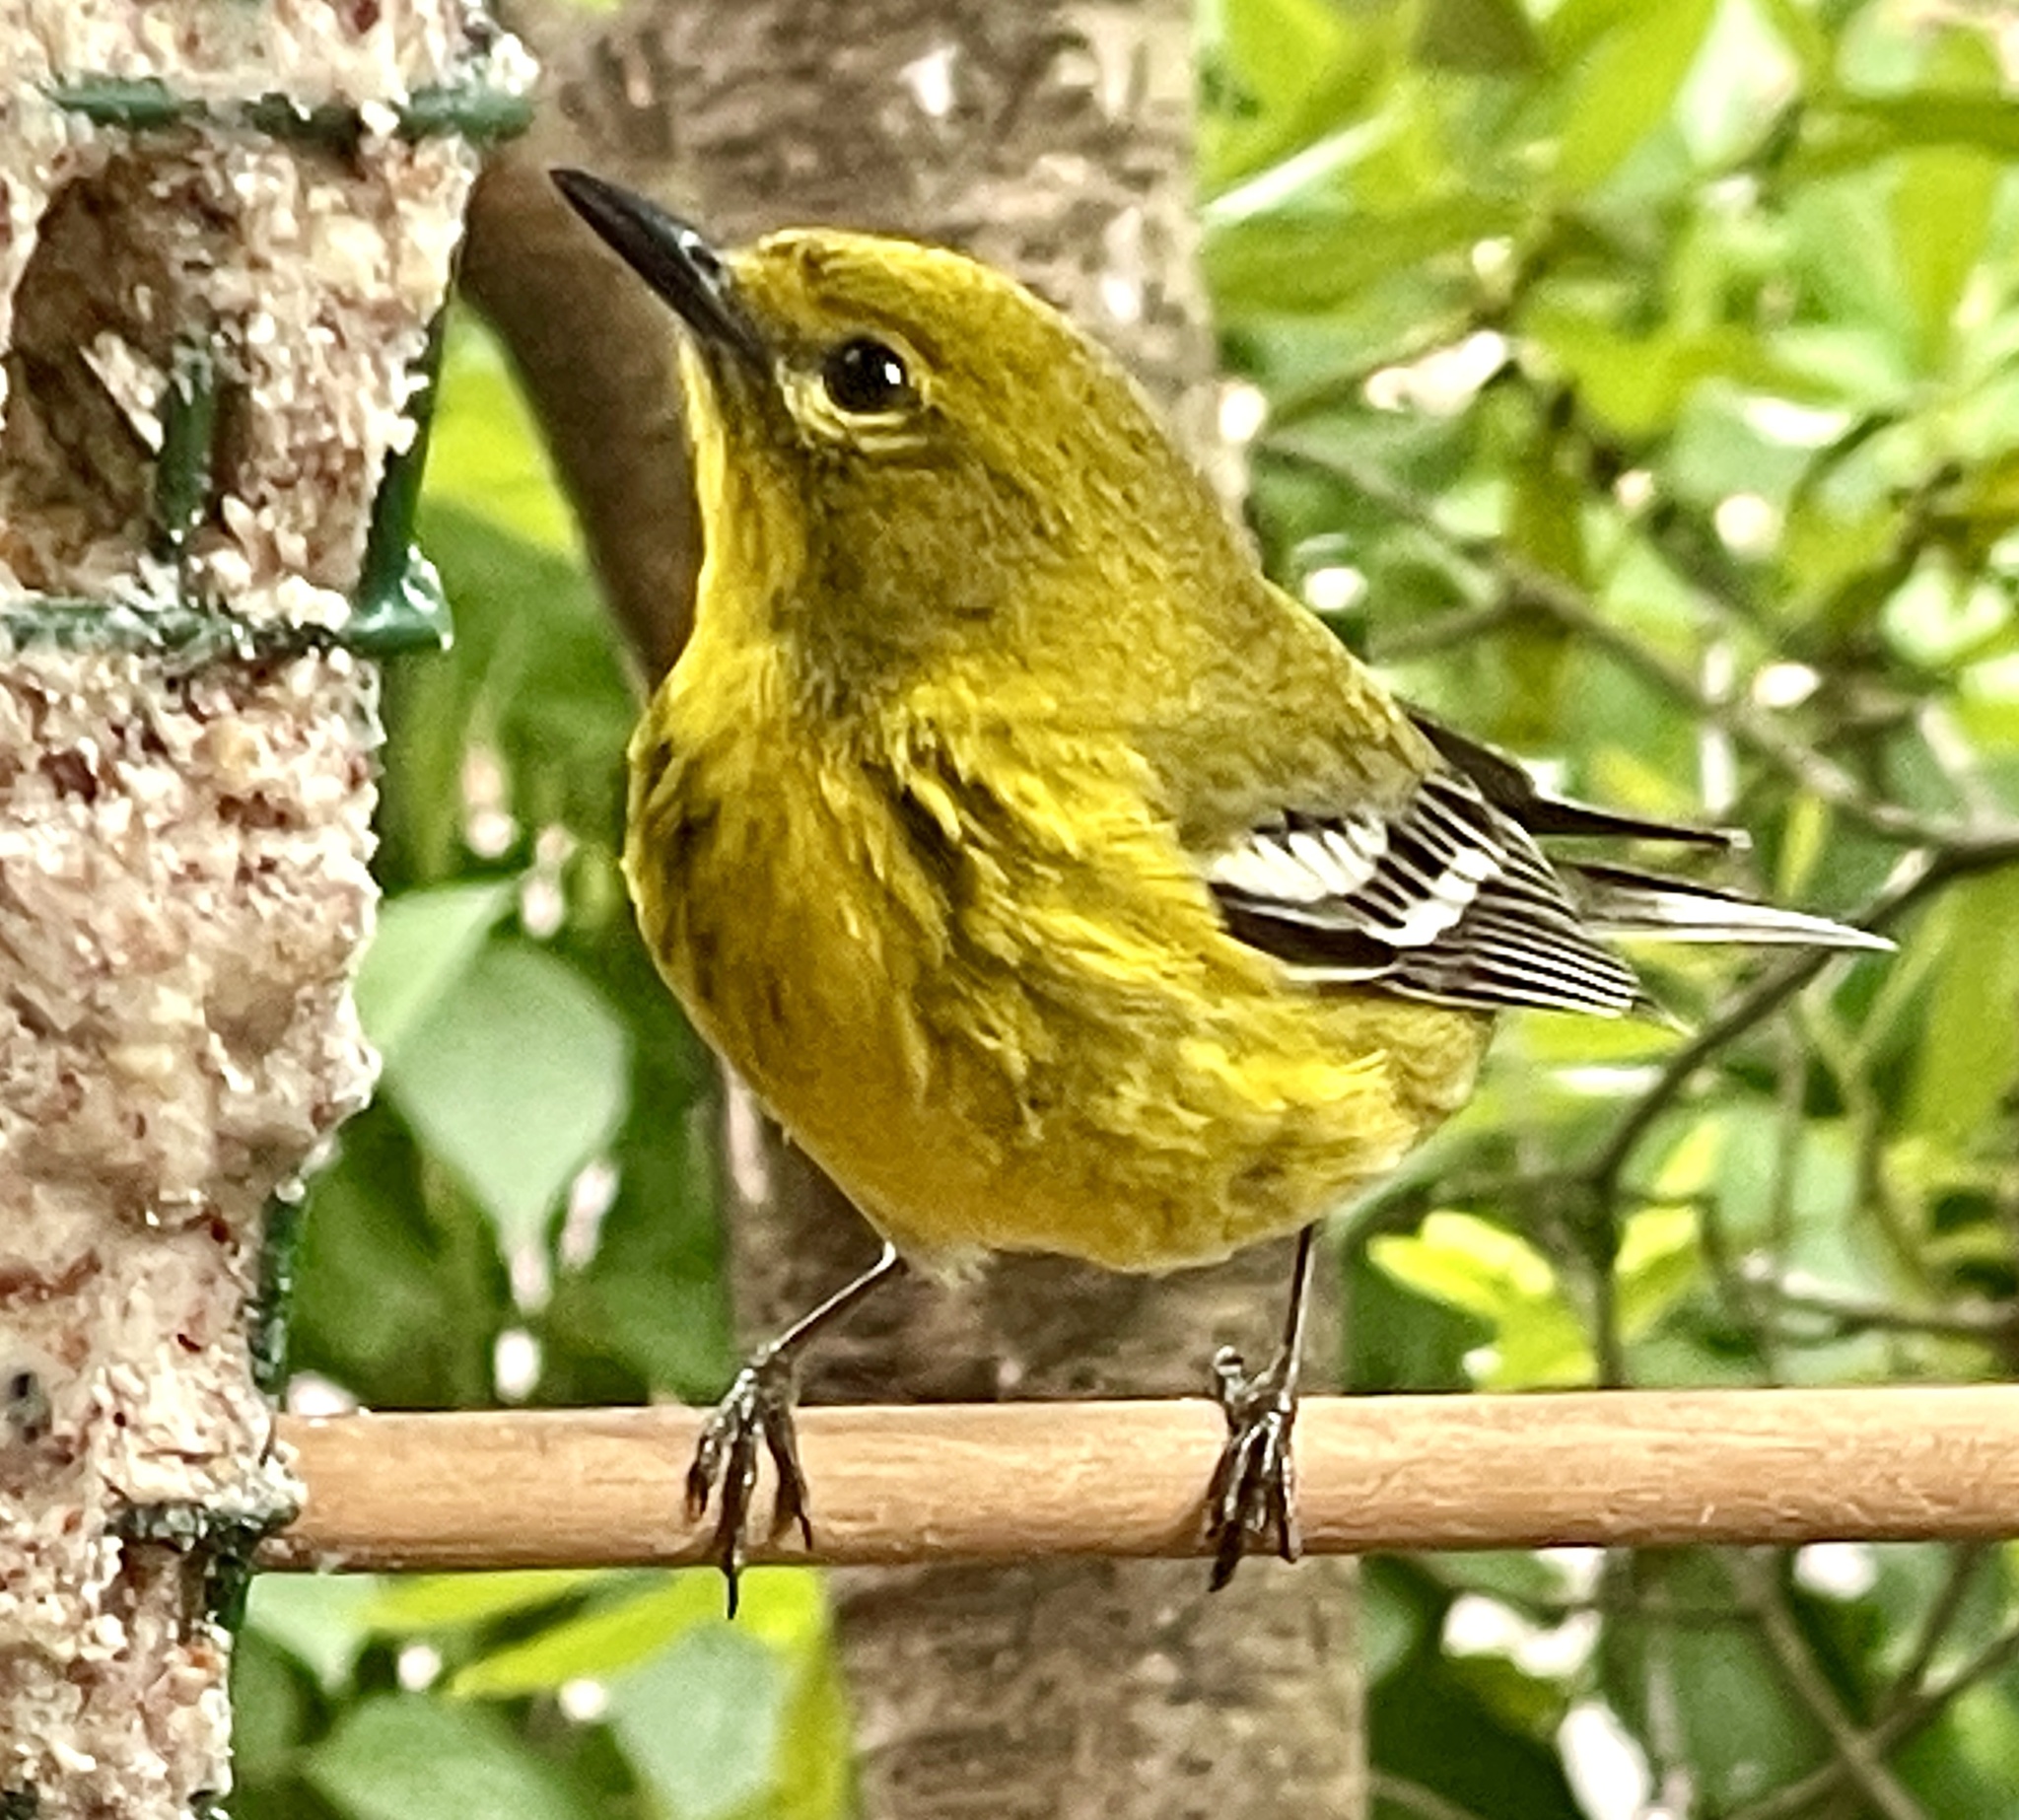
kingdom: Animalia
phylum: Chordata
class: Aves
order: Passeriformes
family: Parulidae
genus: Setophaga
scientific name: Setophaga pinus
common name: Pine warbler
